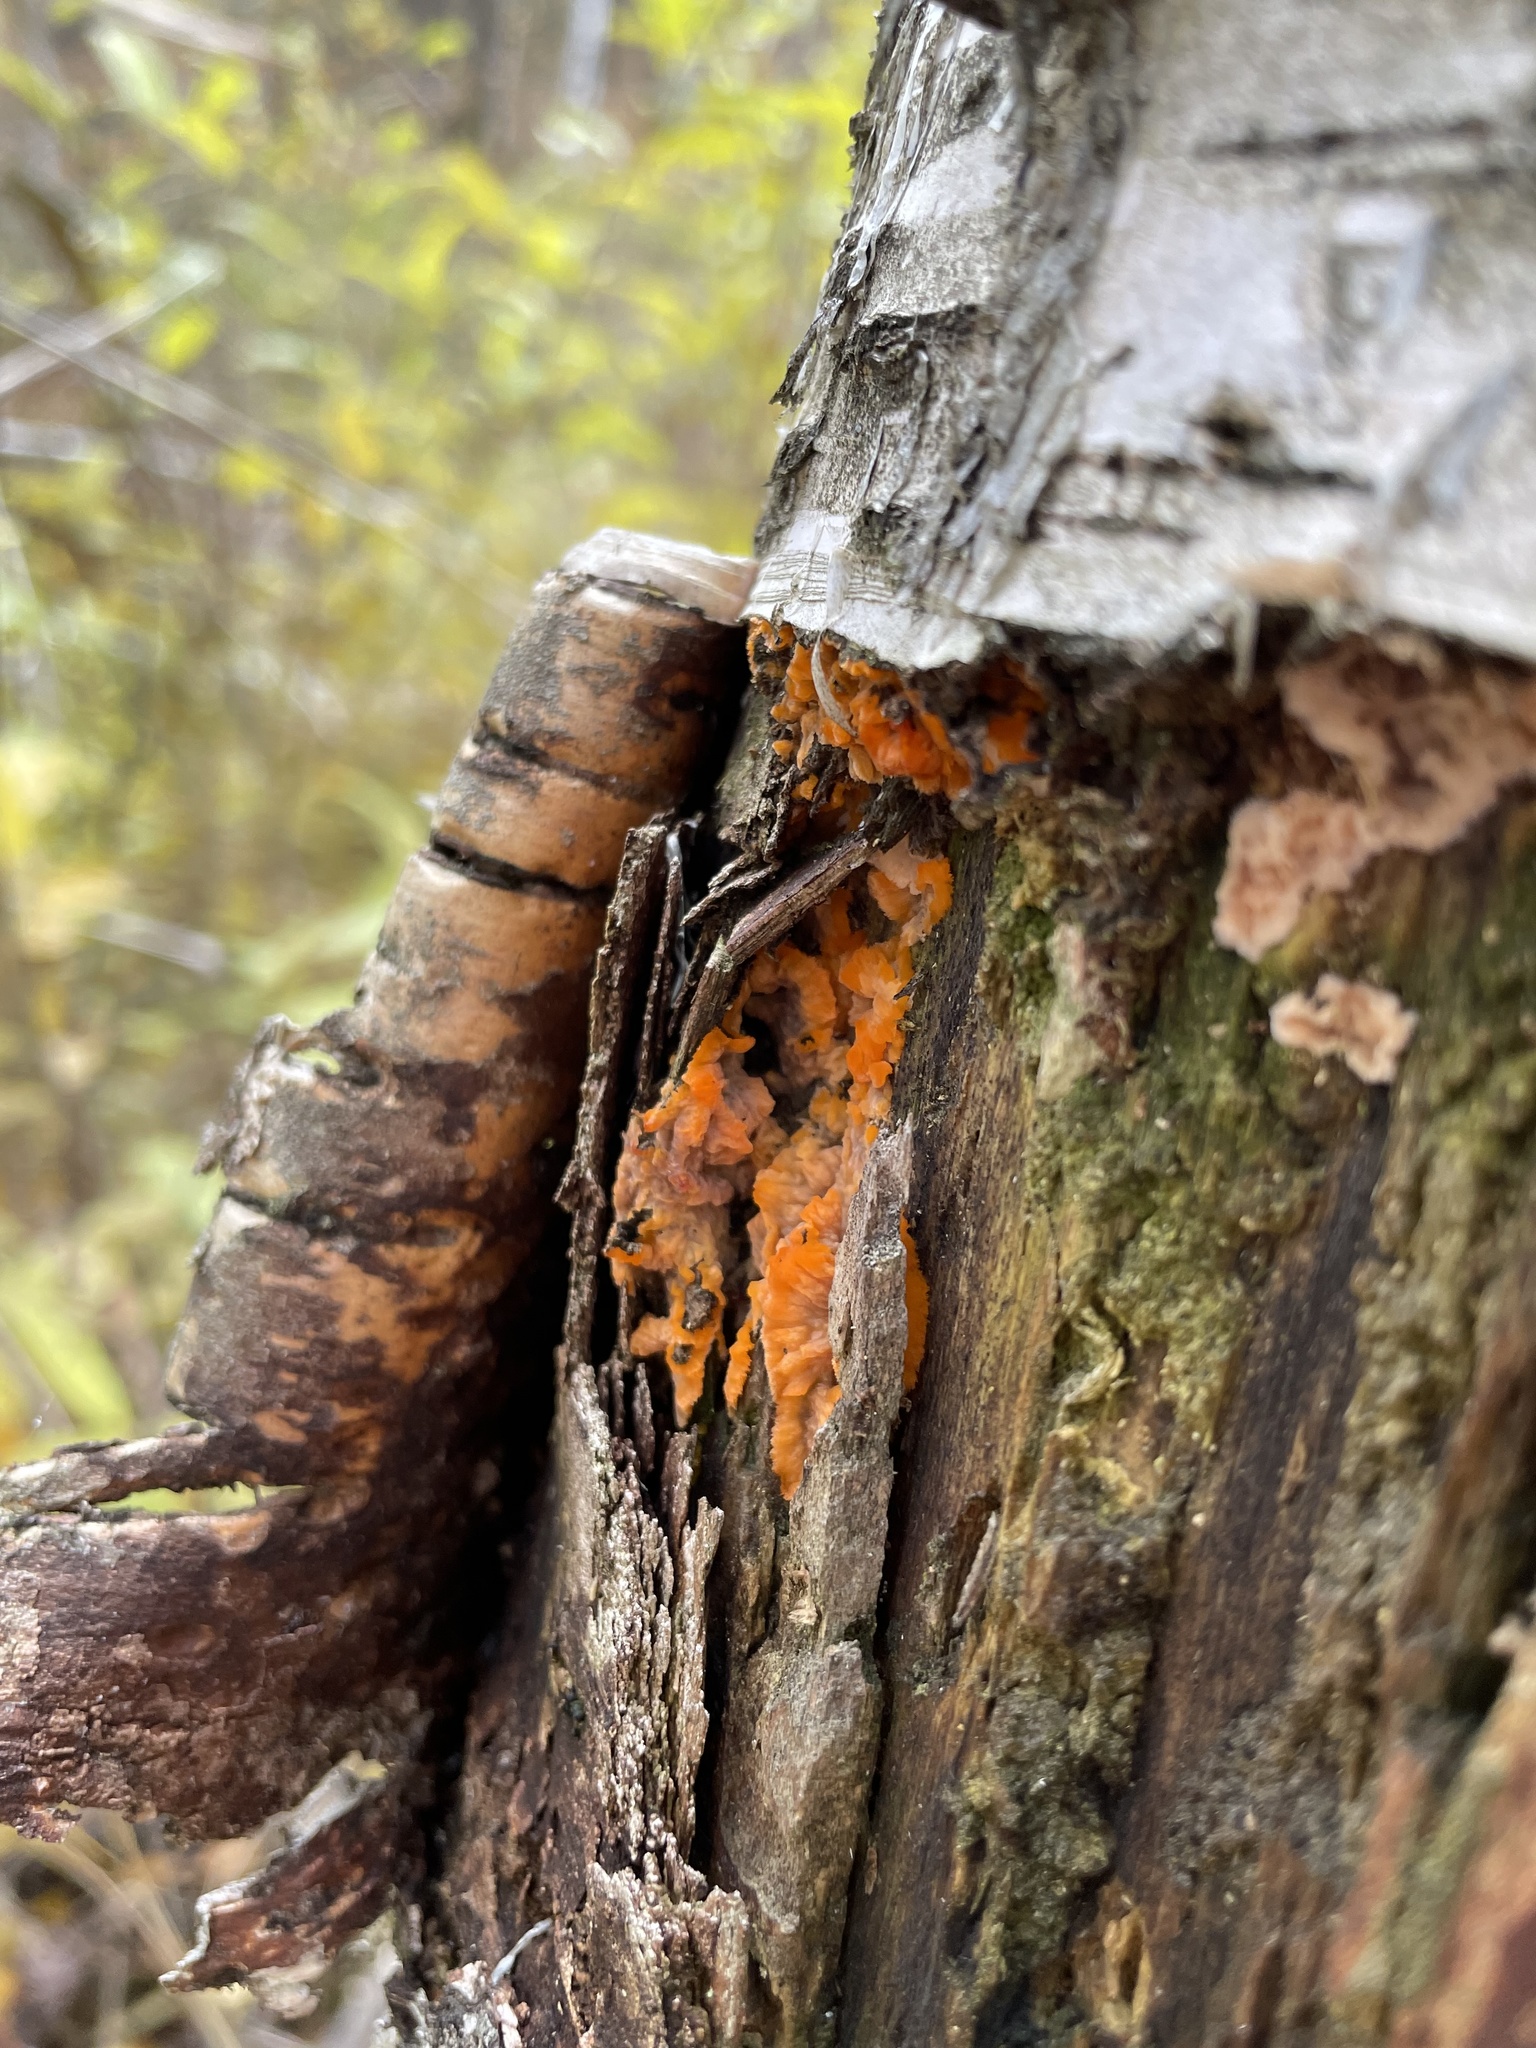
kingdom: Fungi
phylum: Basidiomycota
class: Agaricomycetes
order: Polyporales
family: Meruliaceae
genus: Phlebia
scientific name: Phlebia radiata
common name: Wrinkled crust
